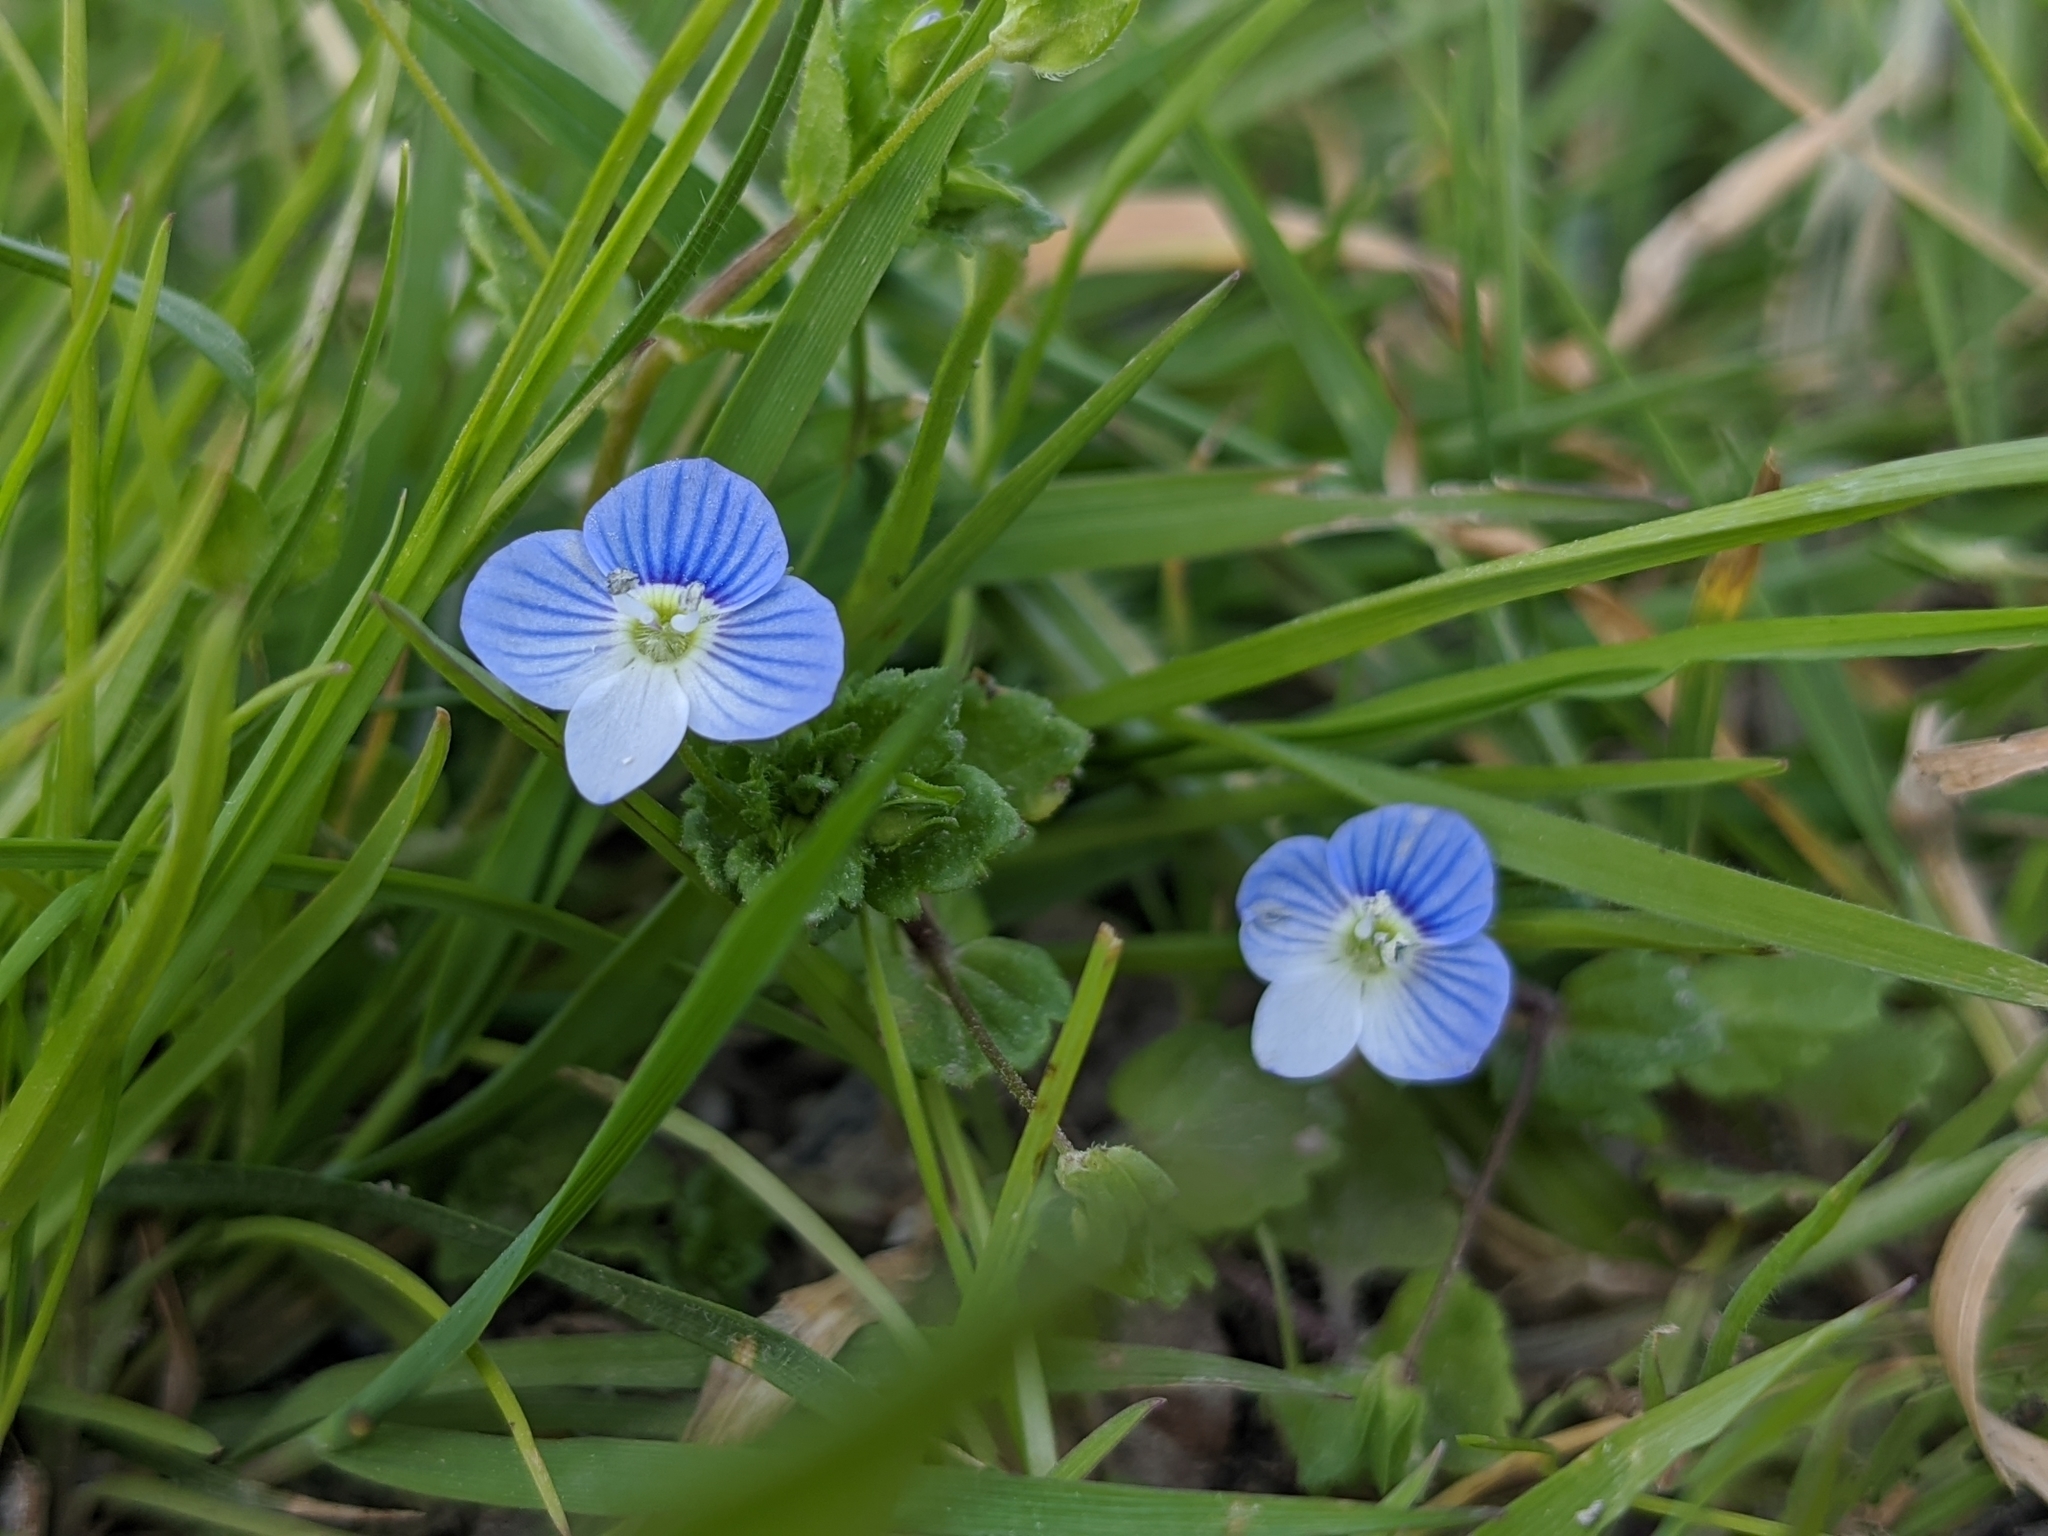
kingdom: Plantae
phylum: Tracheophyta
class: Magnoliopsida
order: Lamiales
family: Plantaginaceae
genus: Veronica
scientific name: Veronica persica
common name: Common field-speedwell
